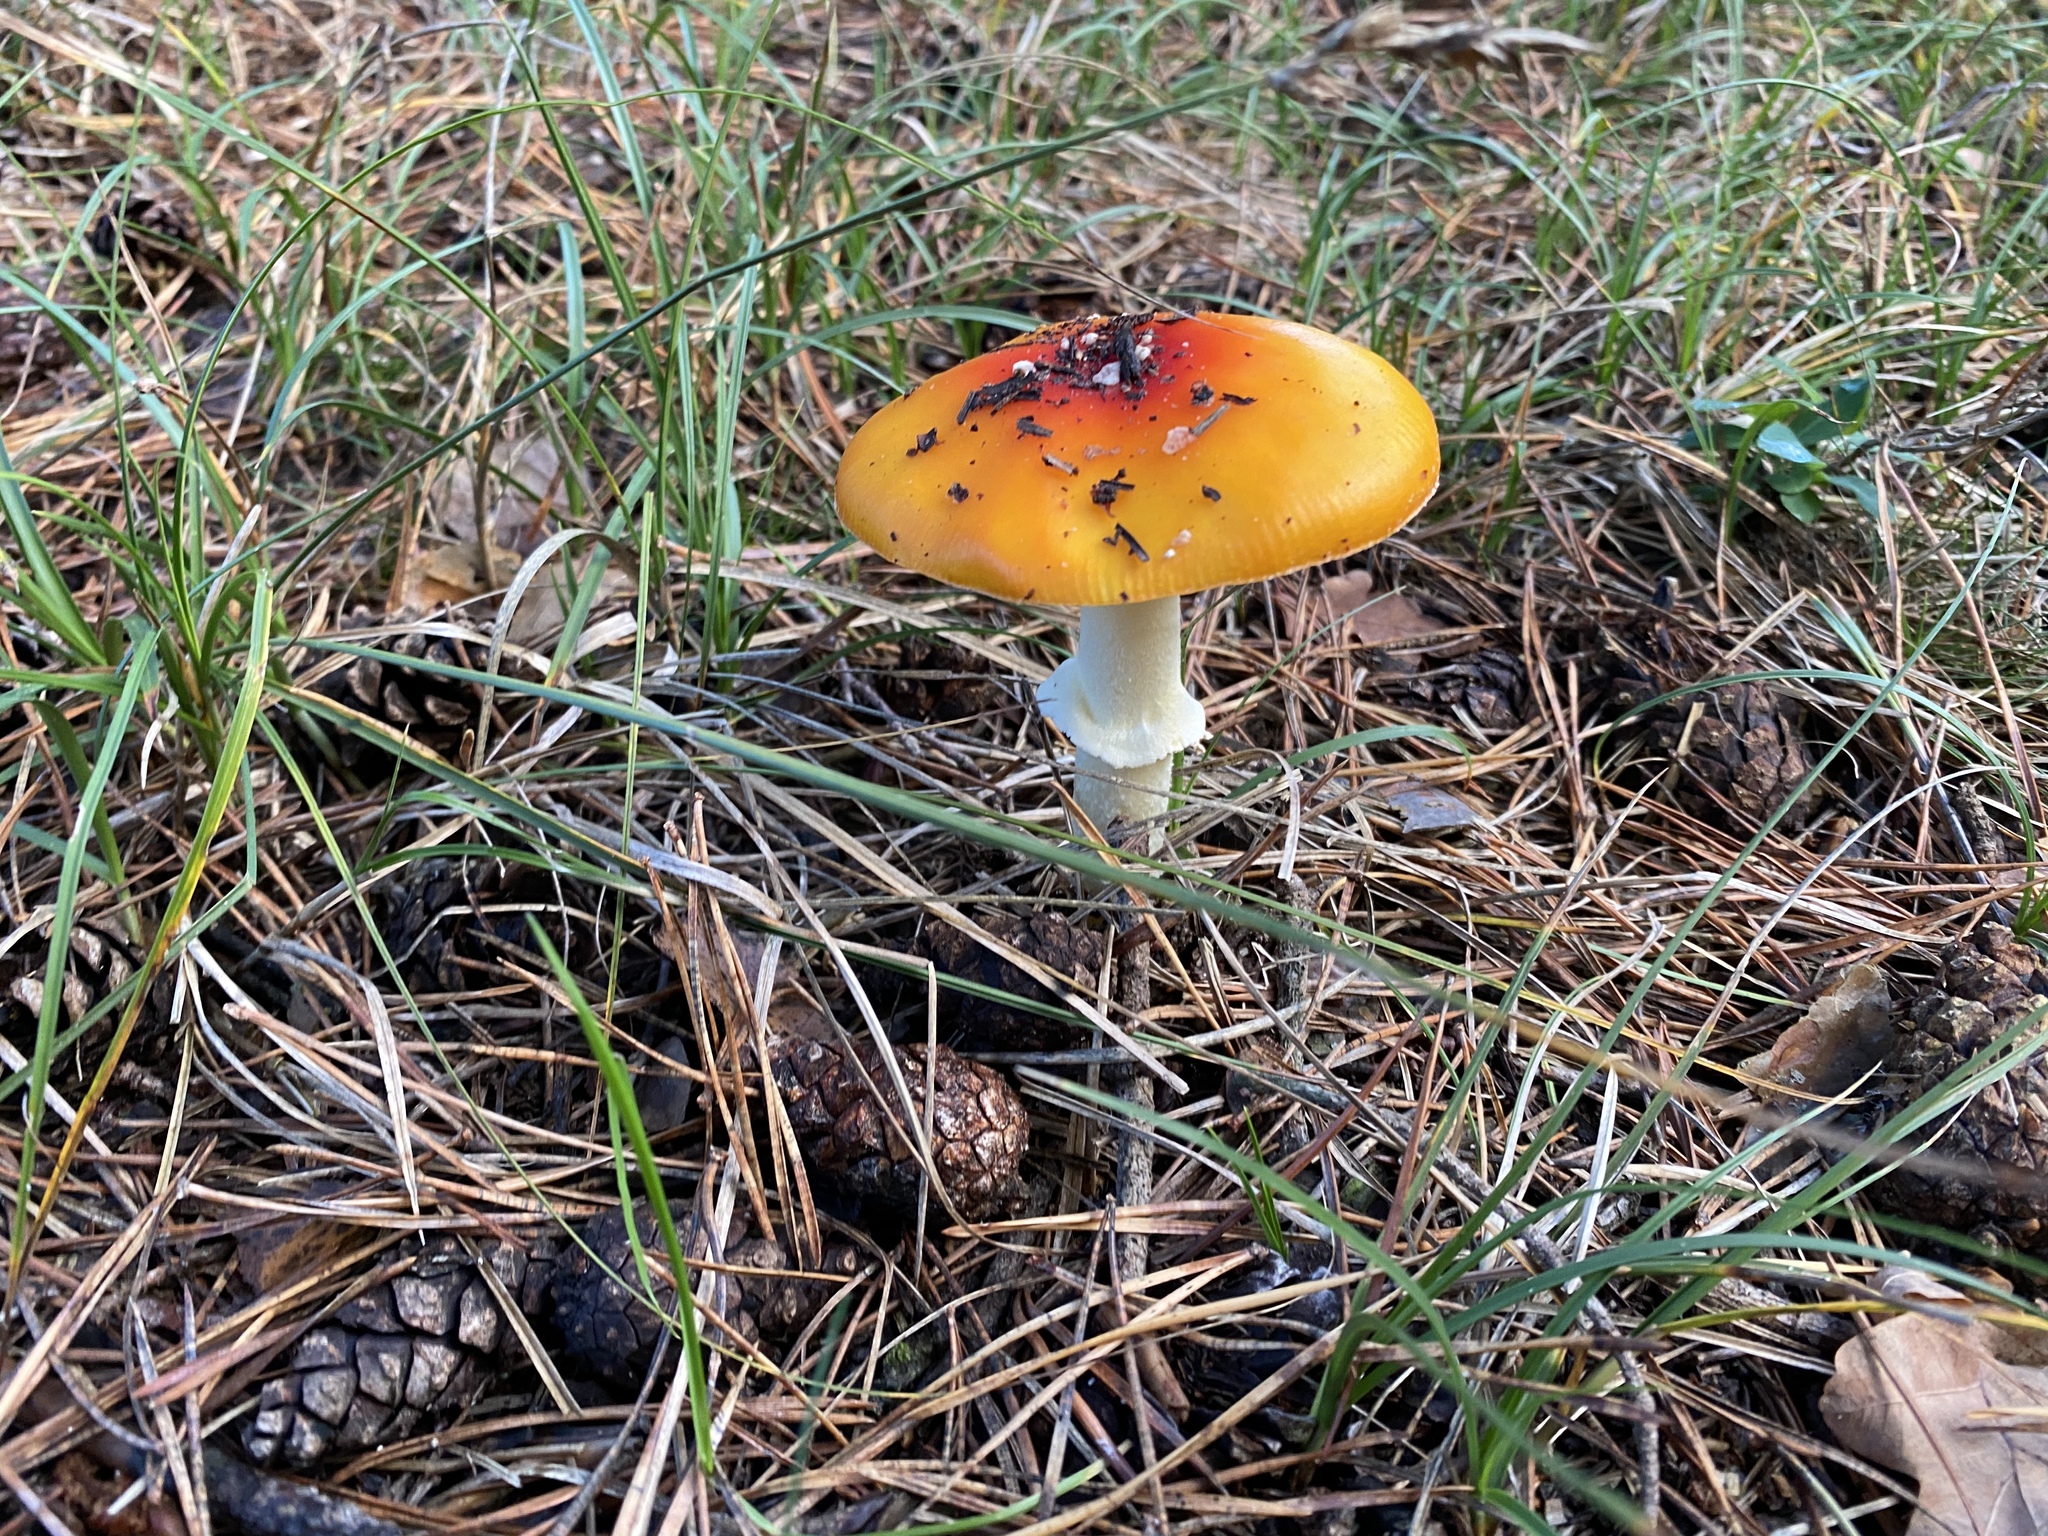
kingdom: Fungi
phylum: Basidiomycota
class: Agaricomycetes
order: Agaricales
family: Amanitaceae
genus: Amanita
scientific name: Amanita muscaria
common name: Fly agaric
